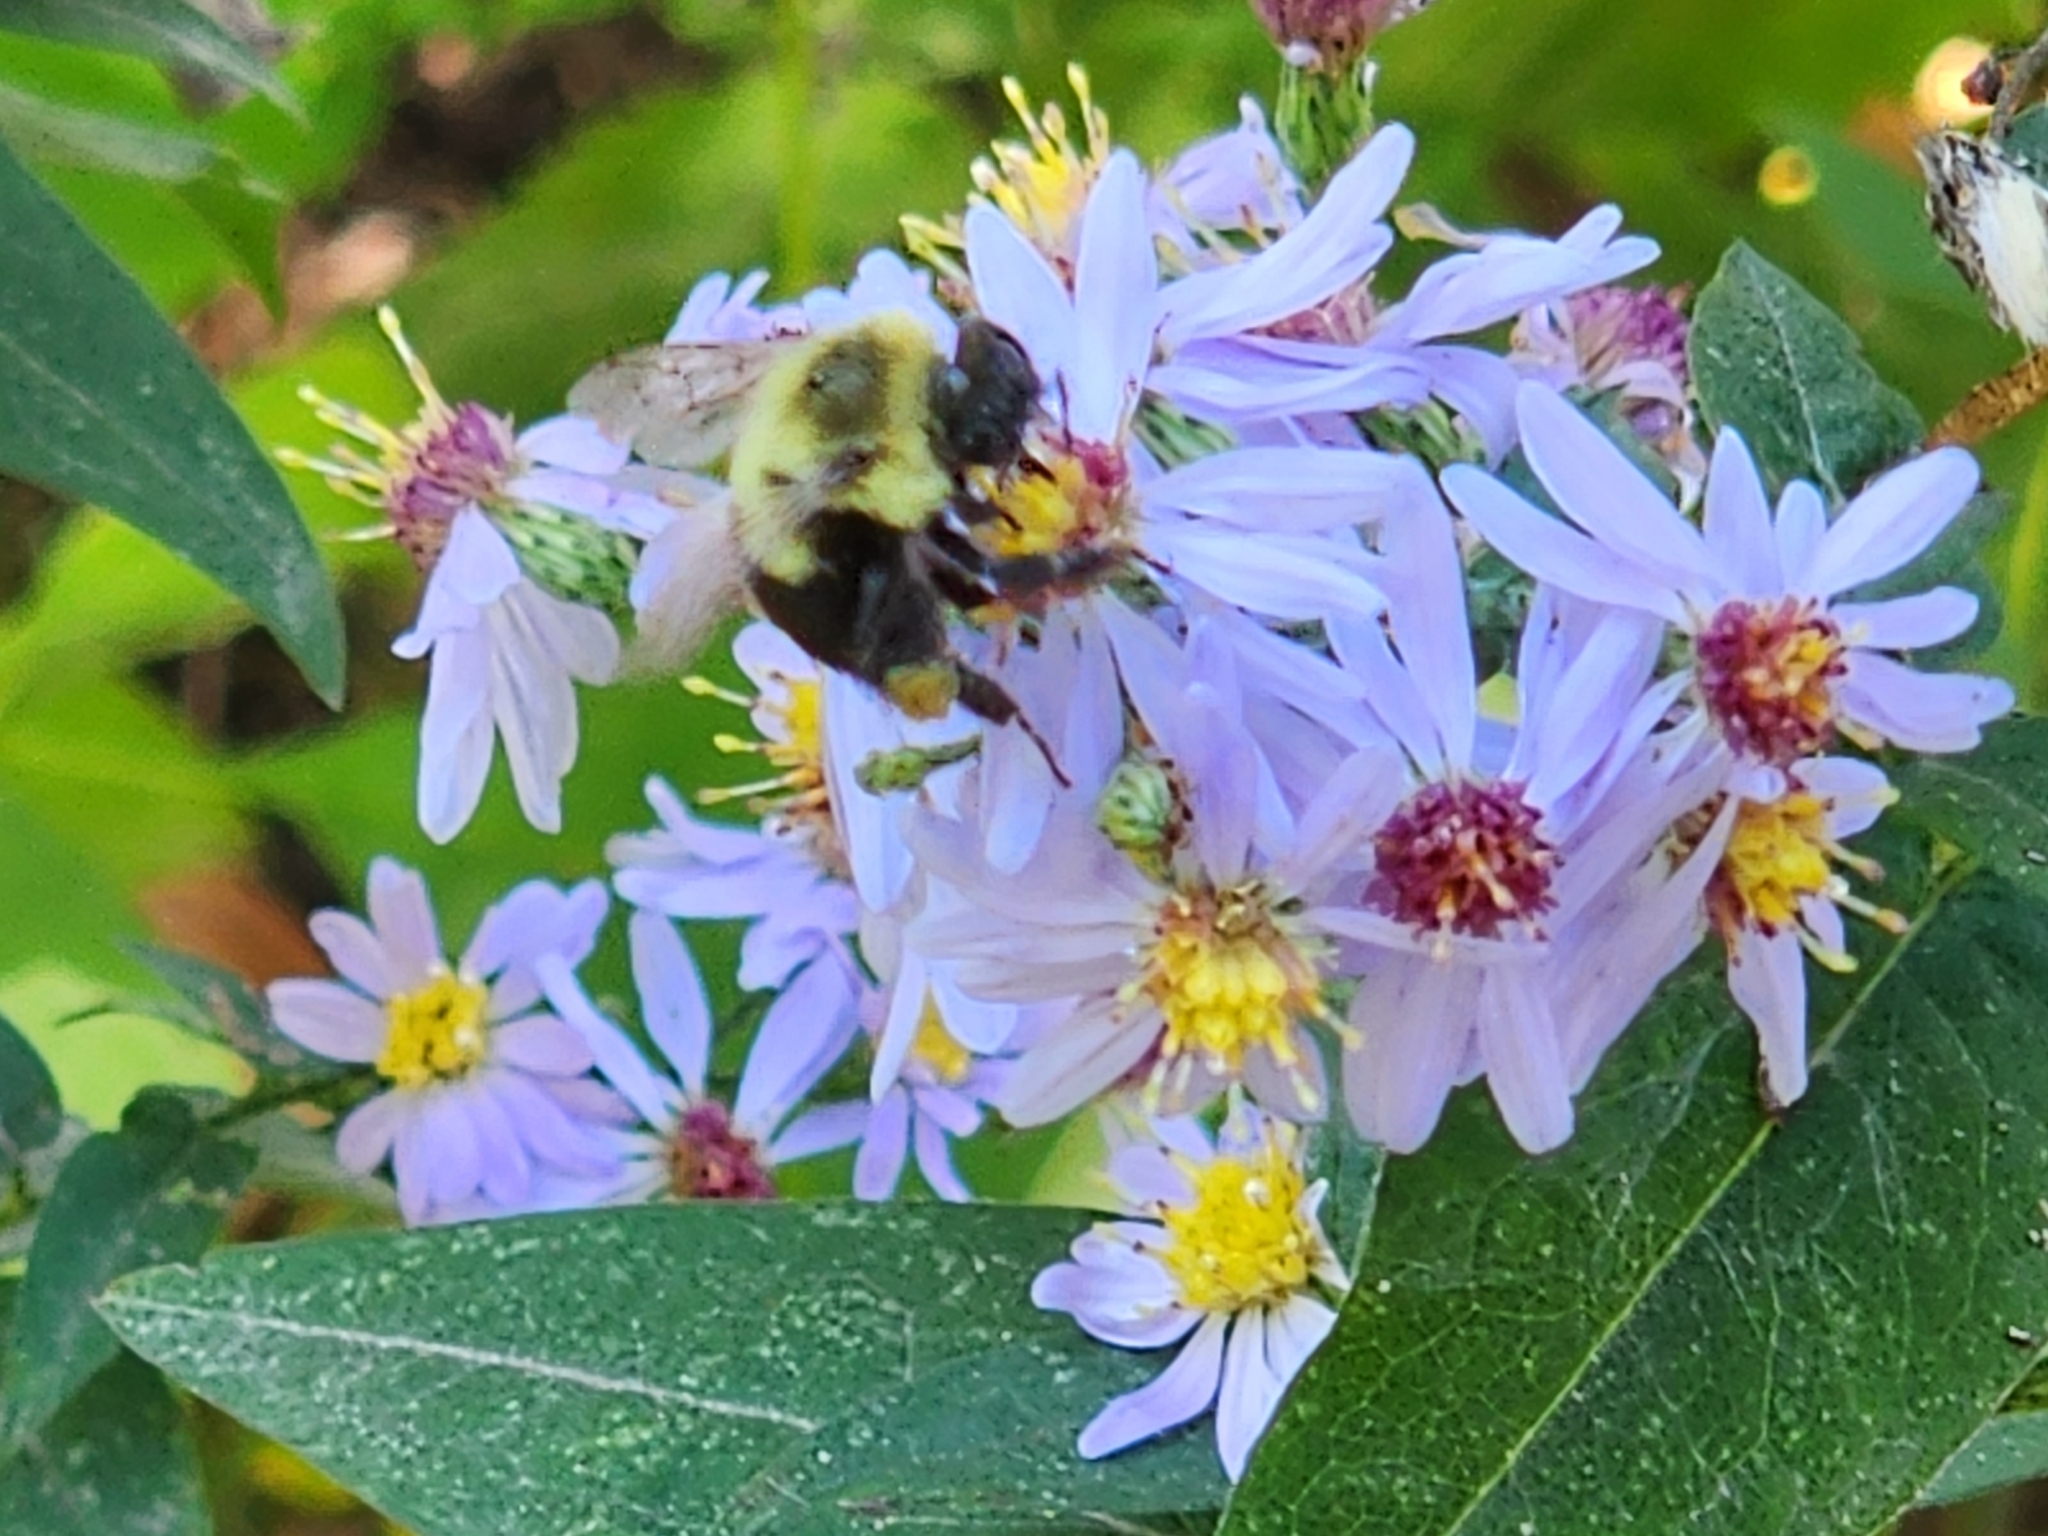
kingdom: Animalia
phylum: Arthropoda
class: Insecta
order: Hymenoptera
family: Apidae
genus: Bombus
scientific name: Bombus impatiens
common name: Common eastern bumble bee
